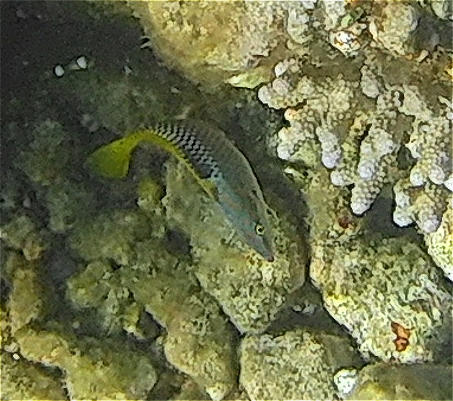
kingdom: Animalia
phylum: Chordata
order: Perciformes
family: Labridae
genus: Halichoeres
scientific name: Halichoeres hortulanus
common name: Checkerboard wrasse
